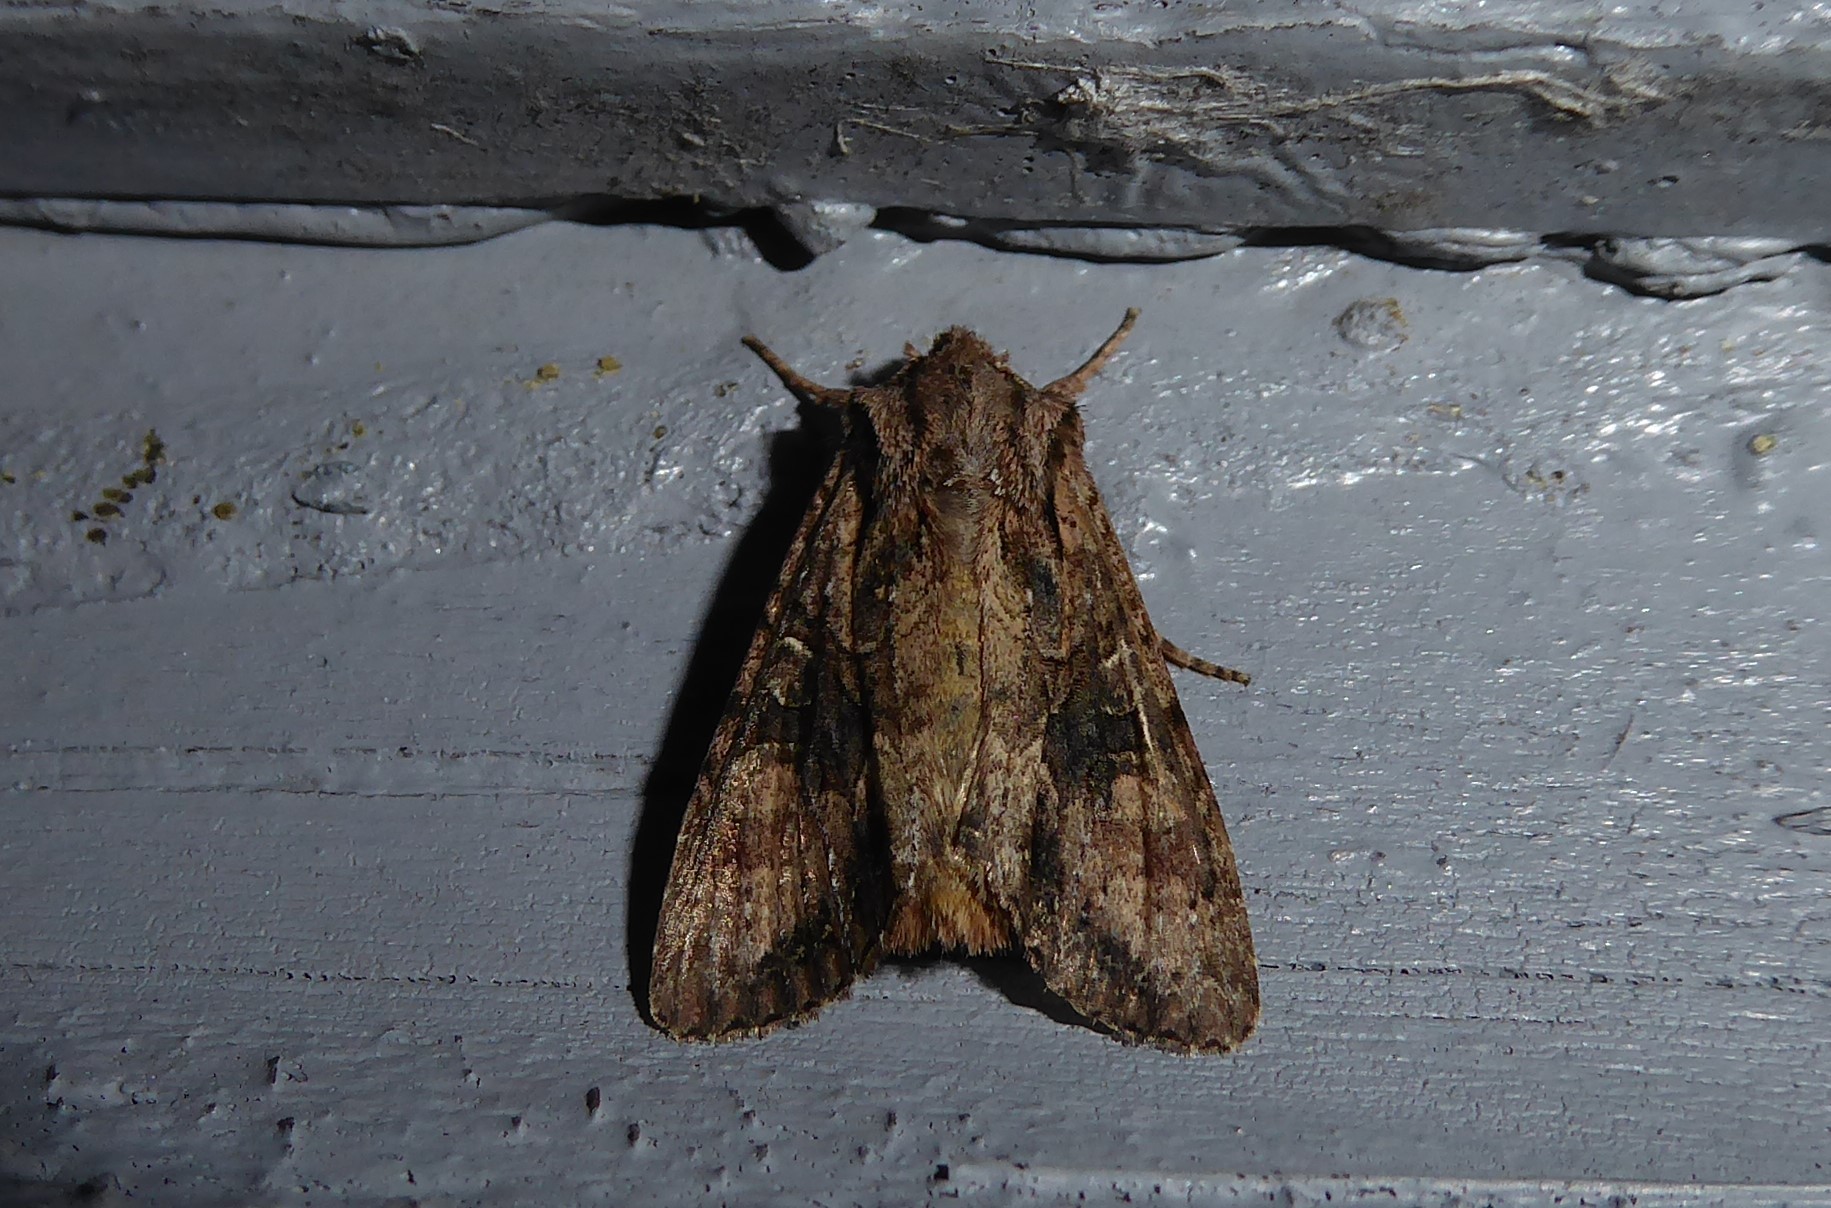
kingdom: Animalia
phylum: Arthropoda
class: Insecta
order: Lepidoptera
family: Noctuidae
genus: Ichneutica
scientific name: Ichneutica mutans
